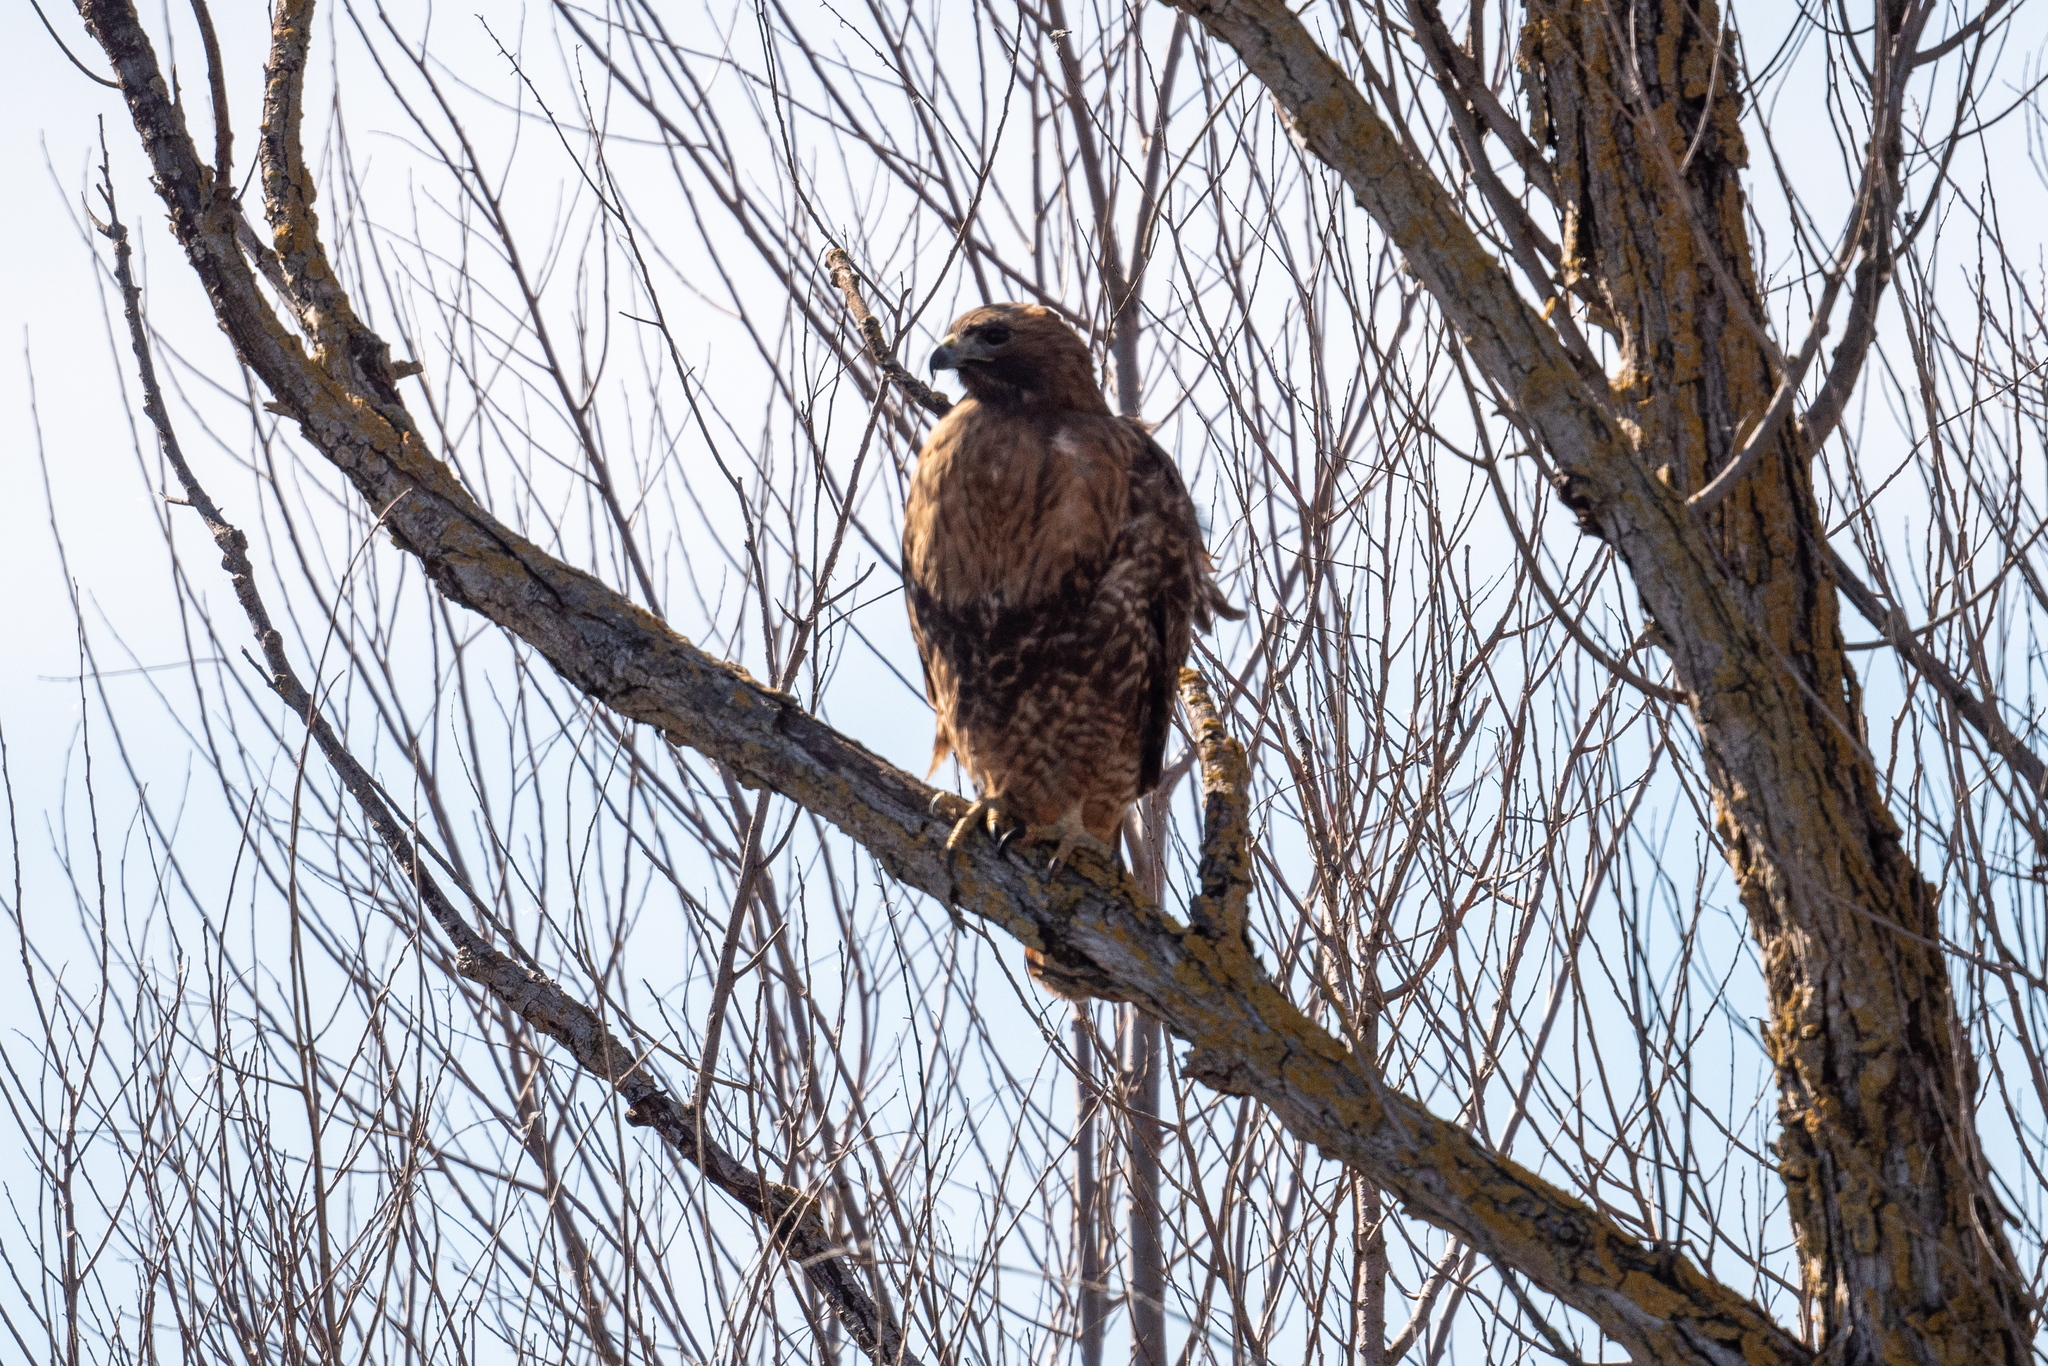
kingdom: Animalia
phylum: Chordata
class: Aves
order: Accipitriformes
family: Accipitridae
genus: Buteo
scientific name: Buteo jamaicensis
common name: Red-tailed hawk
